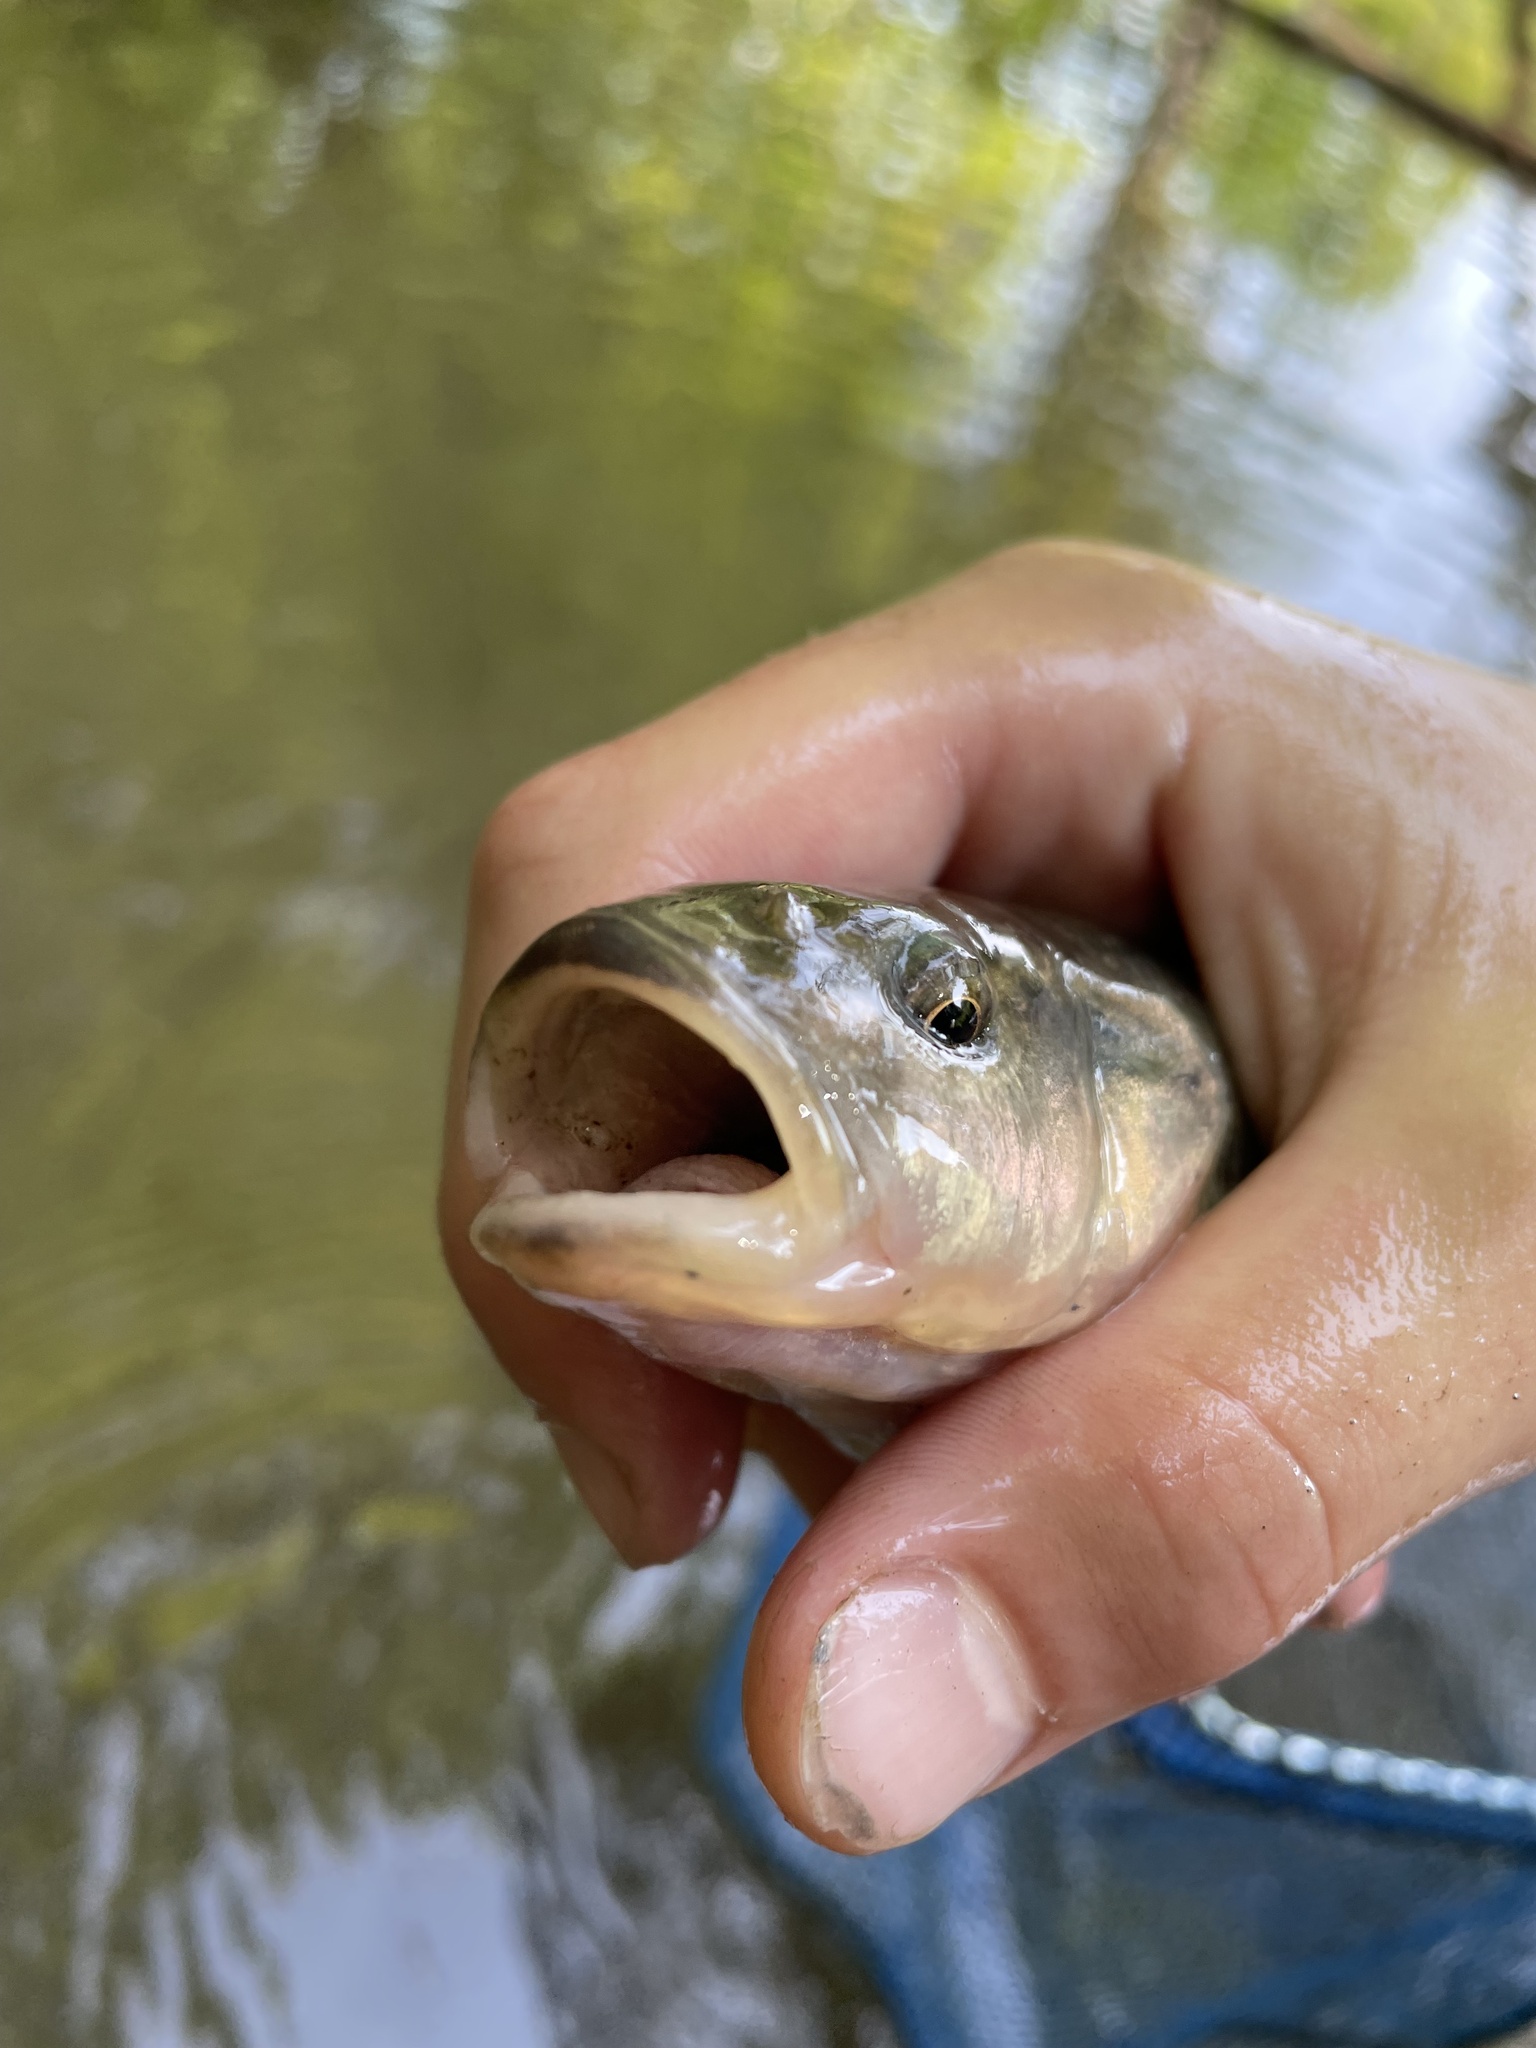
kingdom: Animalia
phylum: Chordata
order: Cypriniformes
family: Cyprinidae
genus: Semotilus
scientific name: Semotilus atromaculatus
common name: Creek chub
